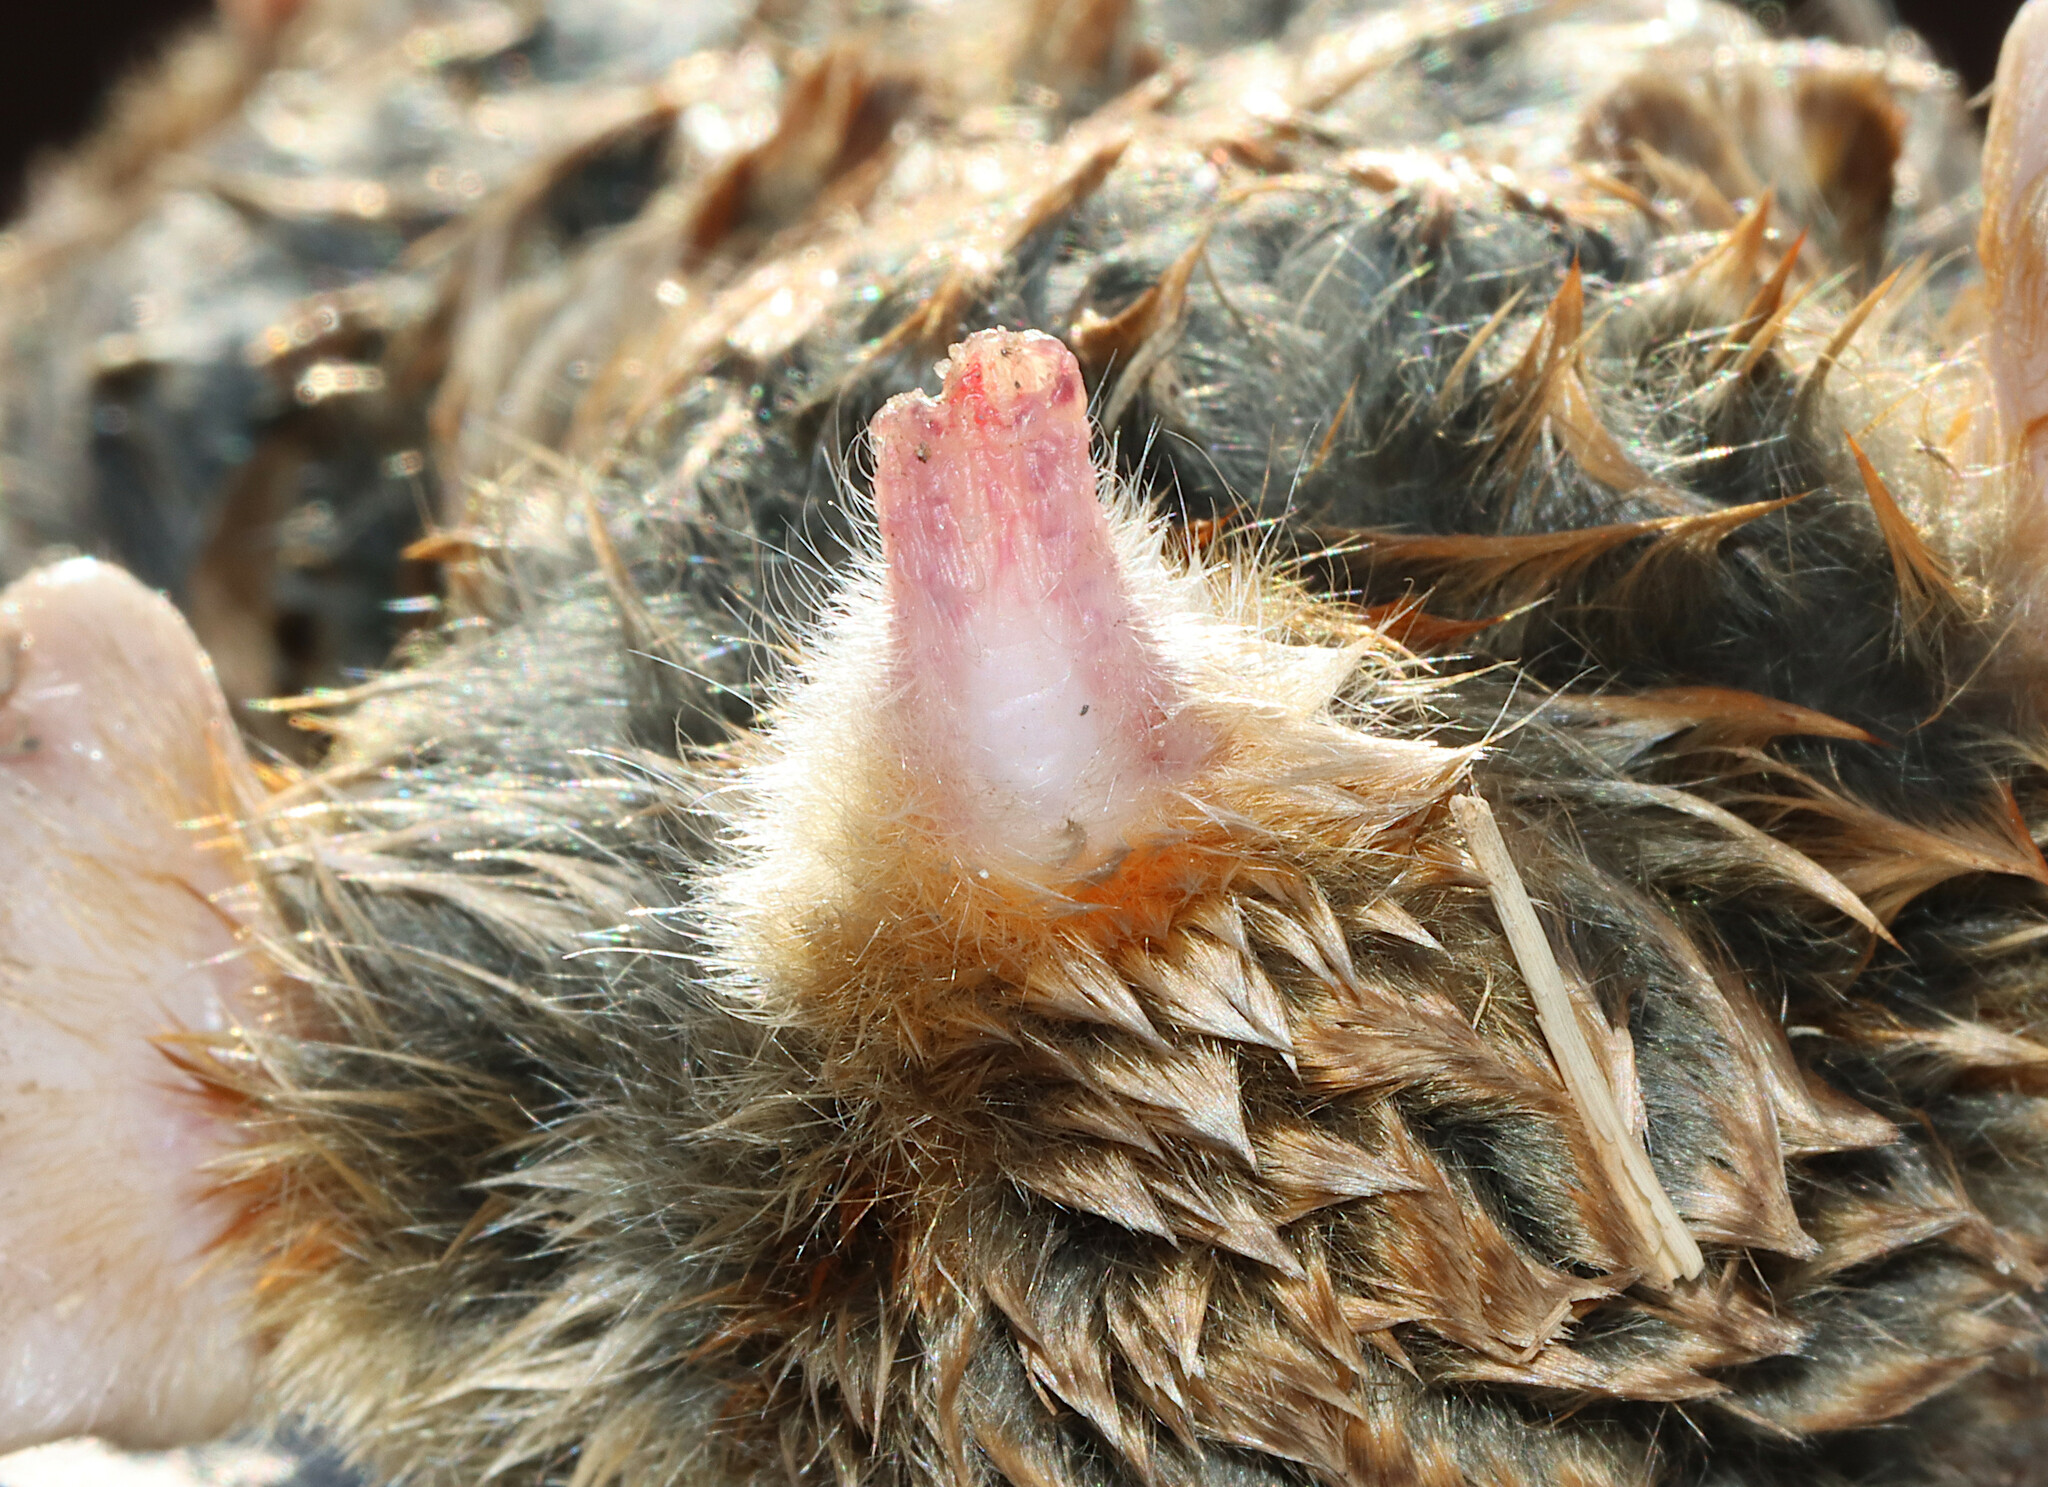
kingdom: Animalia
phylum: Chordata
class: Mammalia
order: Soricomorpha
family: Talpidae
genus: Scalopus
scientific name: Scalopus aquaticus
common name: Eastern mole
